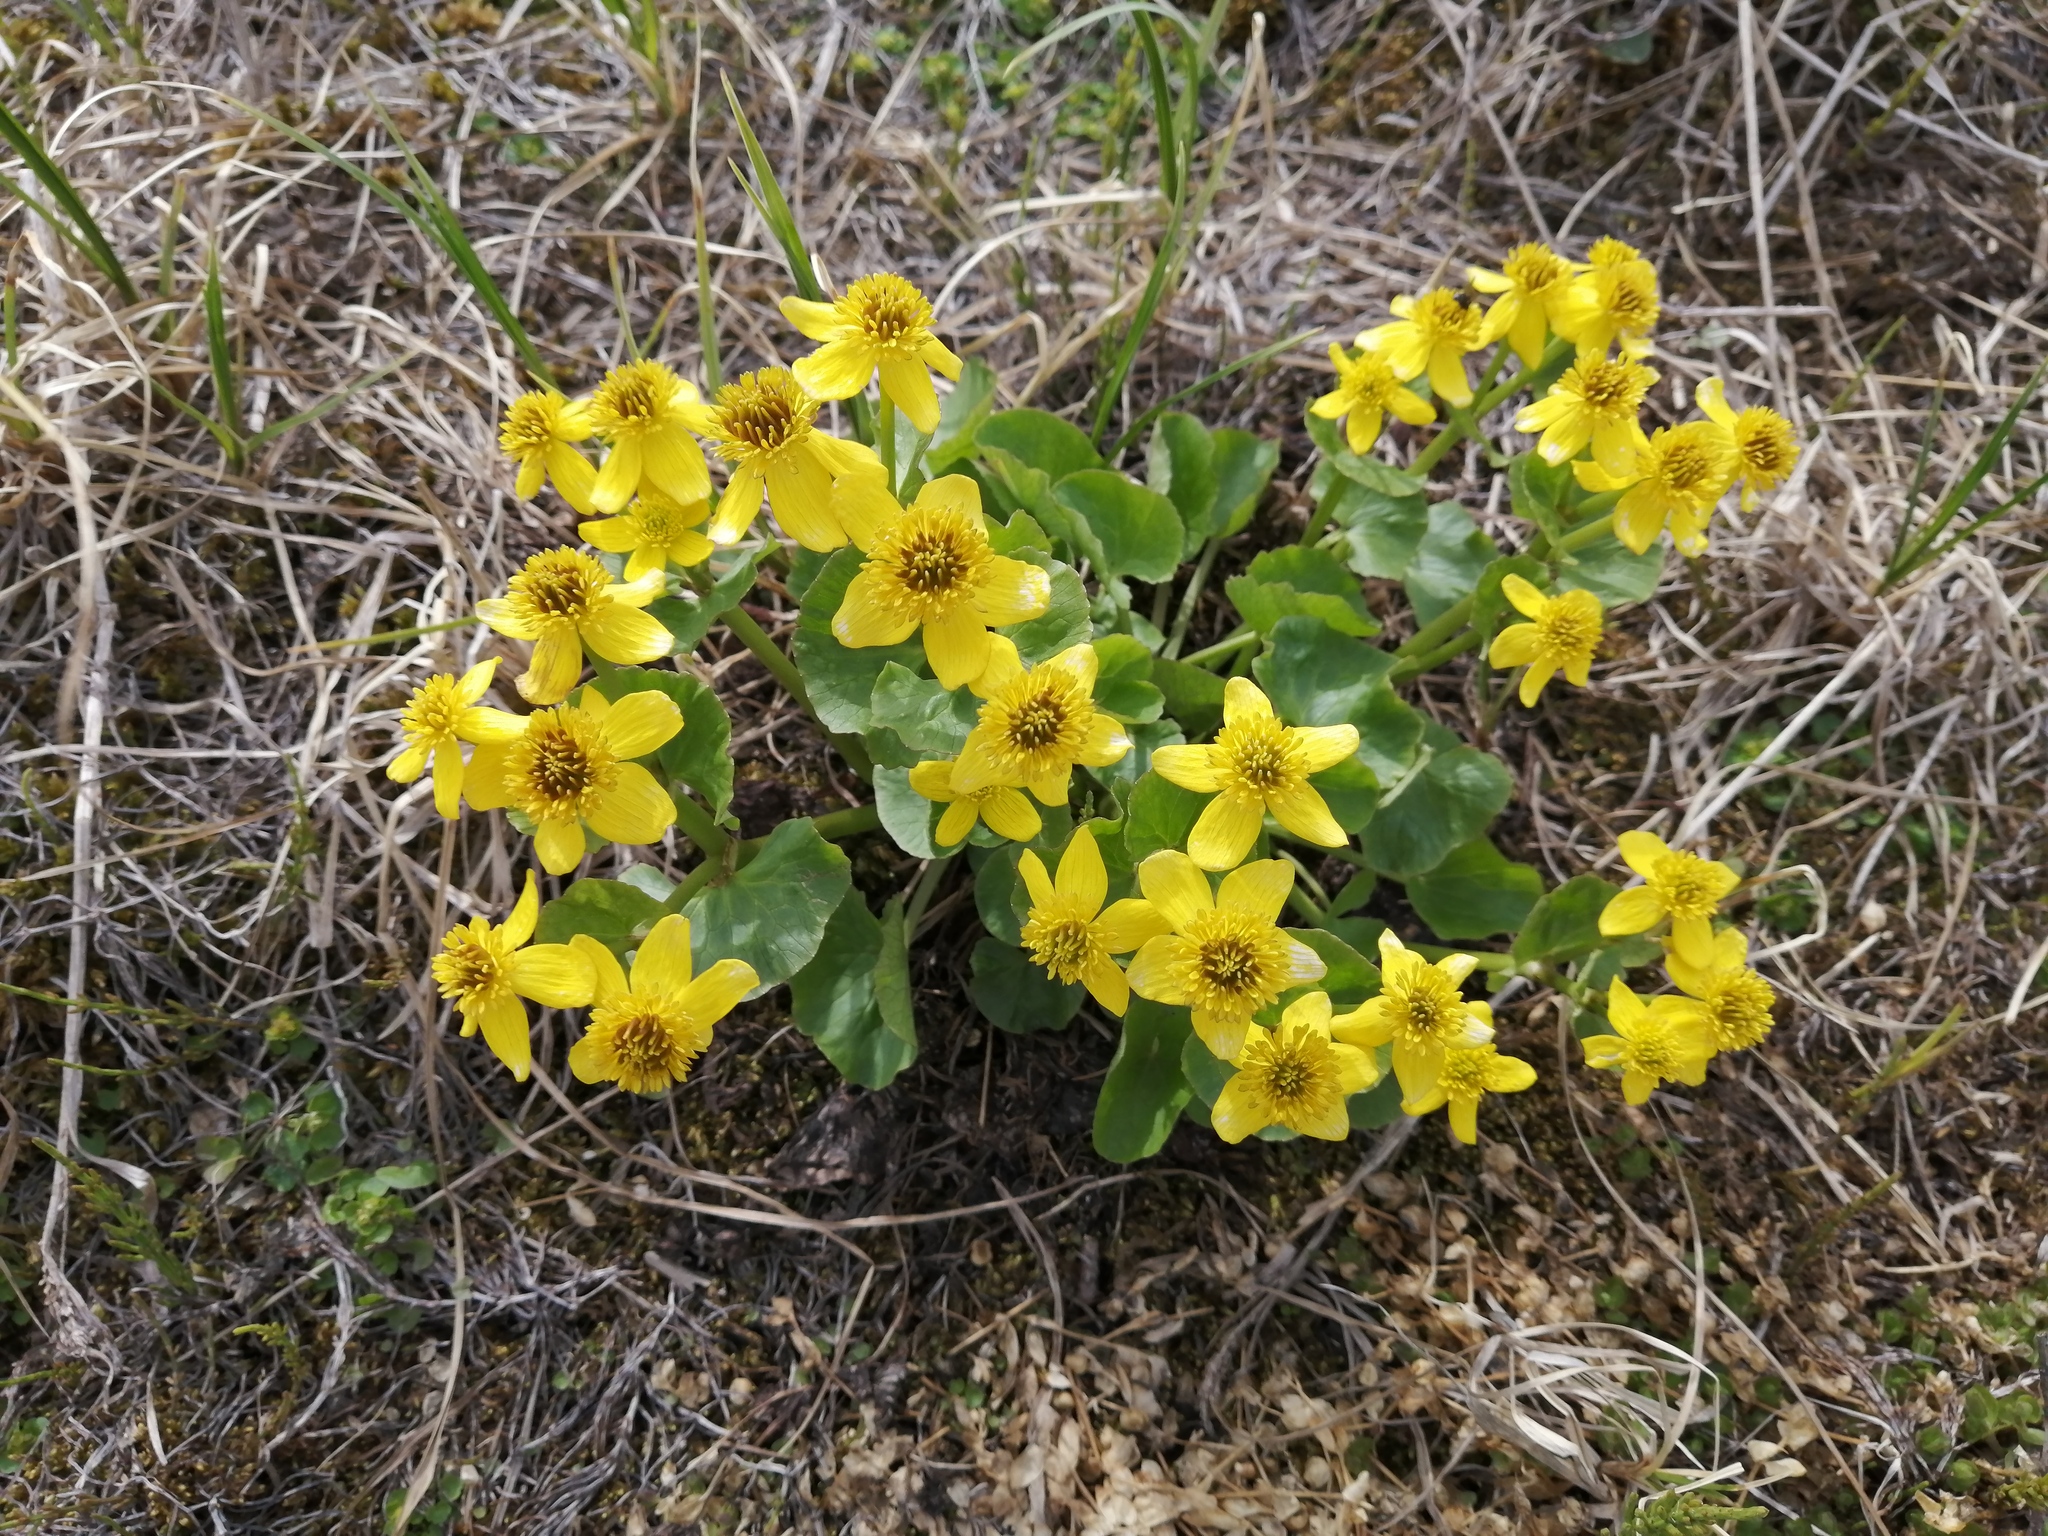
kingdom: Plantae
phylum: Tracheophyta
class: Magnoliopsida
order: Ranunculales
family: Ranunculaceae
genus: Caltha
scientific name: Caltha palustris
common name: Marsh marigold
